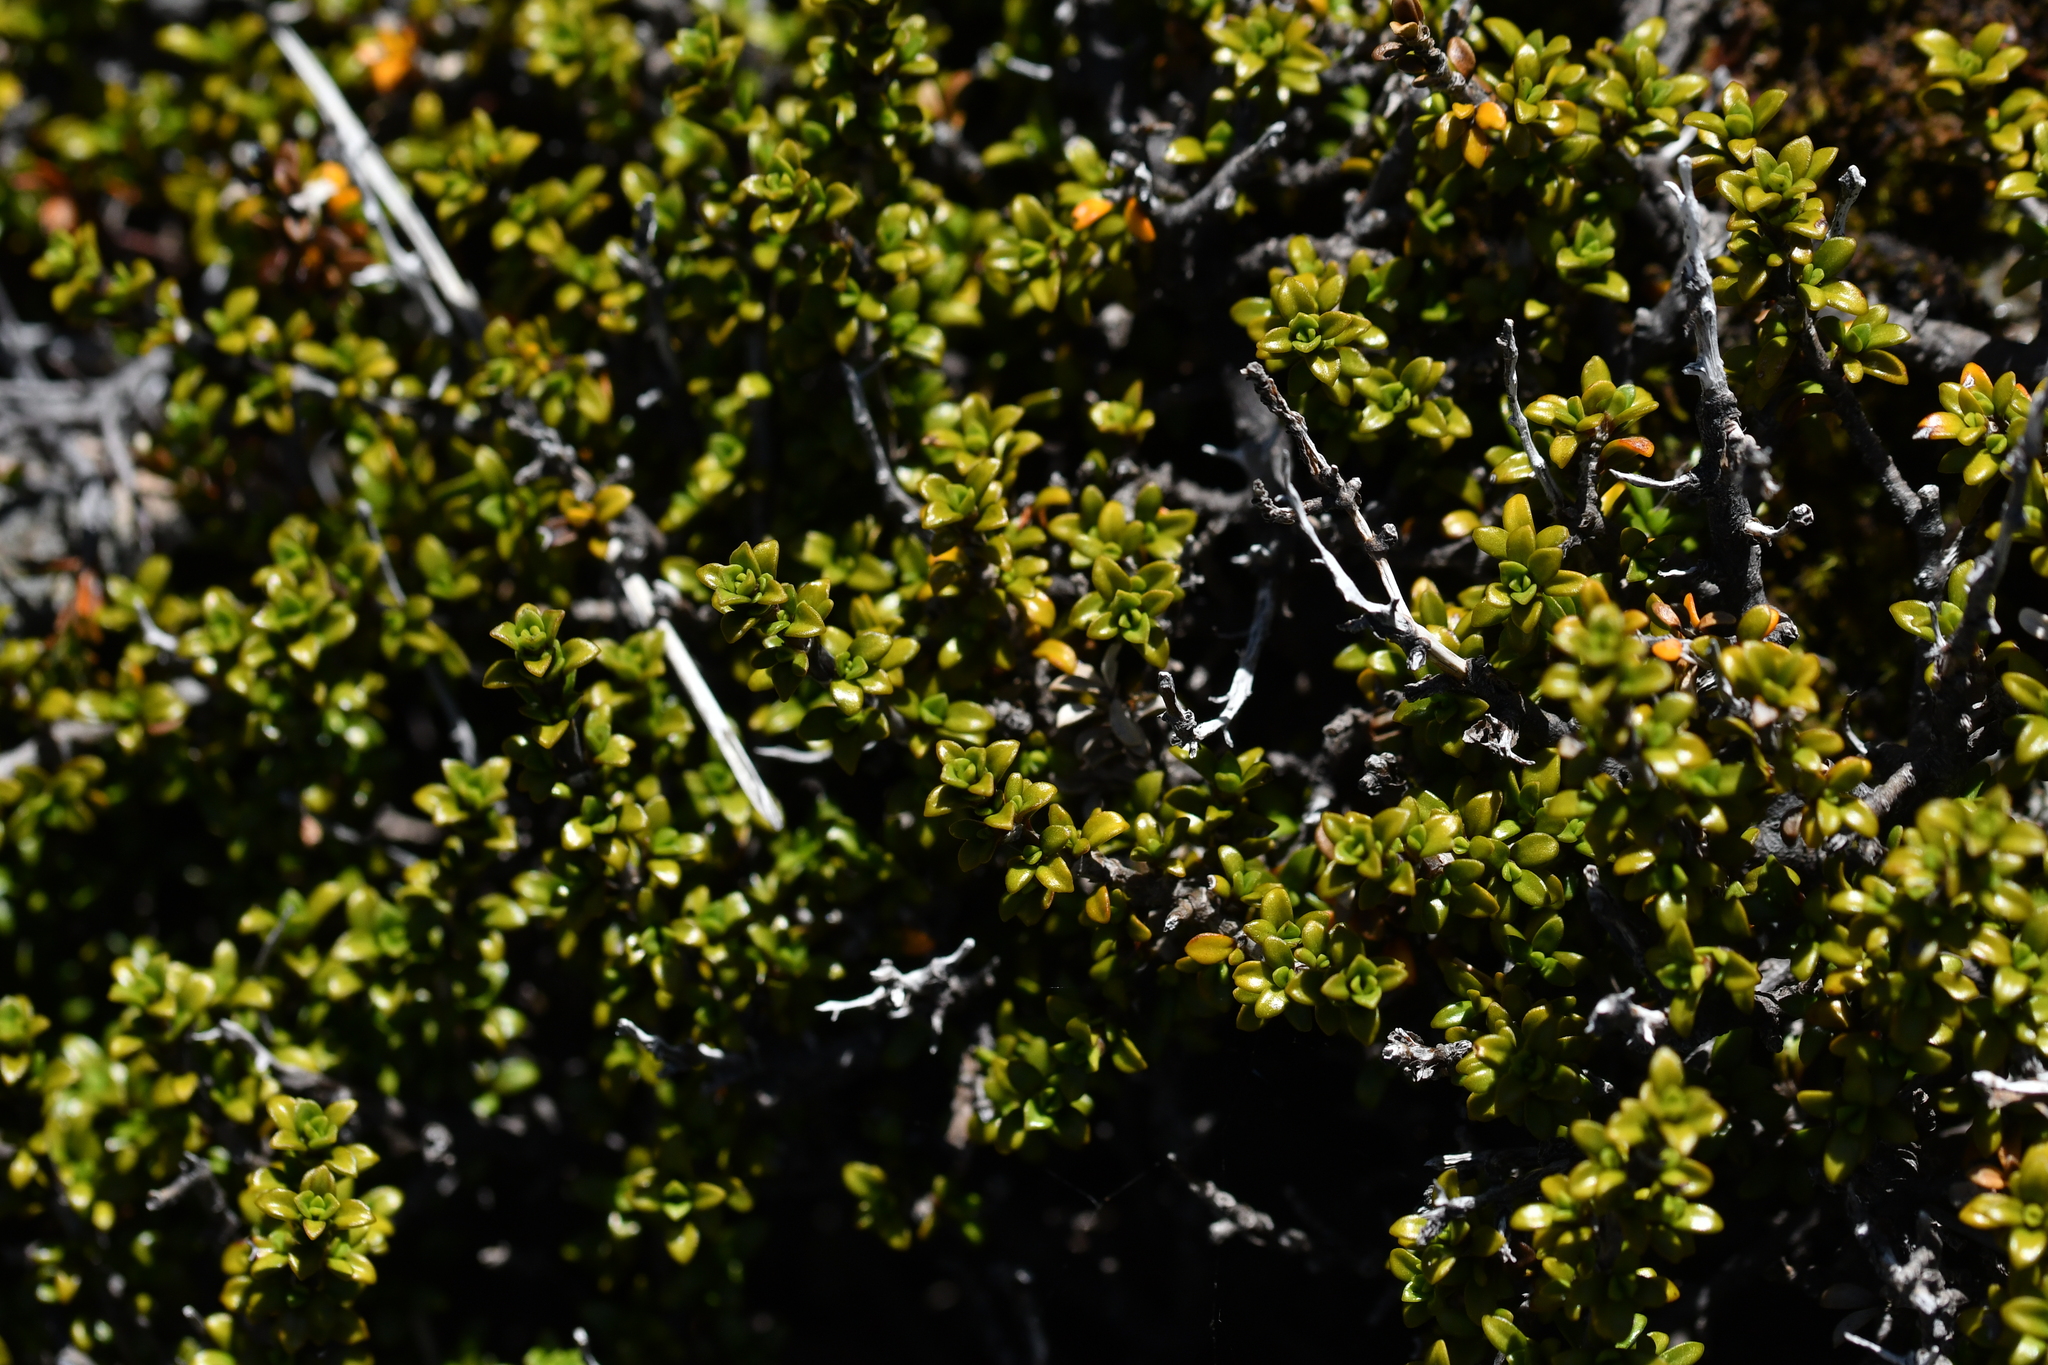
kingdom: Plantae
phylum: Tracheophyta
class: Magnoliopsida
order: Gentianales
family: Rubiaceae
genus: Coprosma
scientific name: Coprosma fowerakeri
